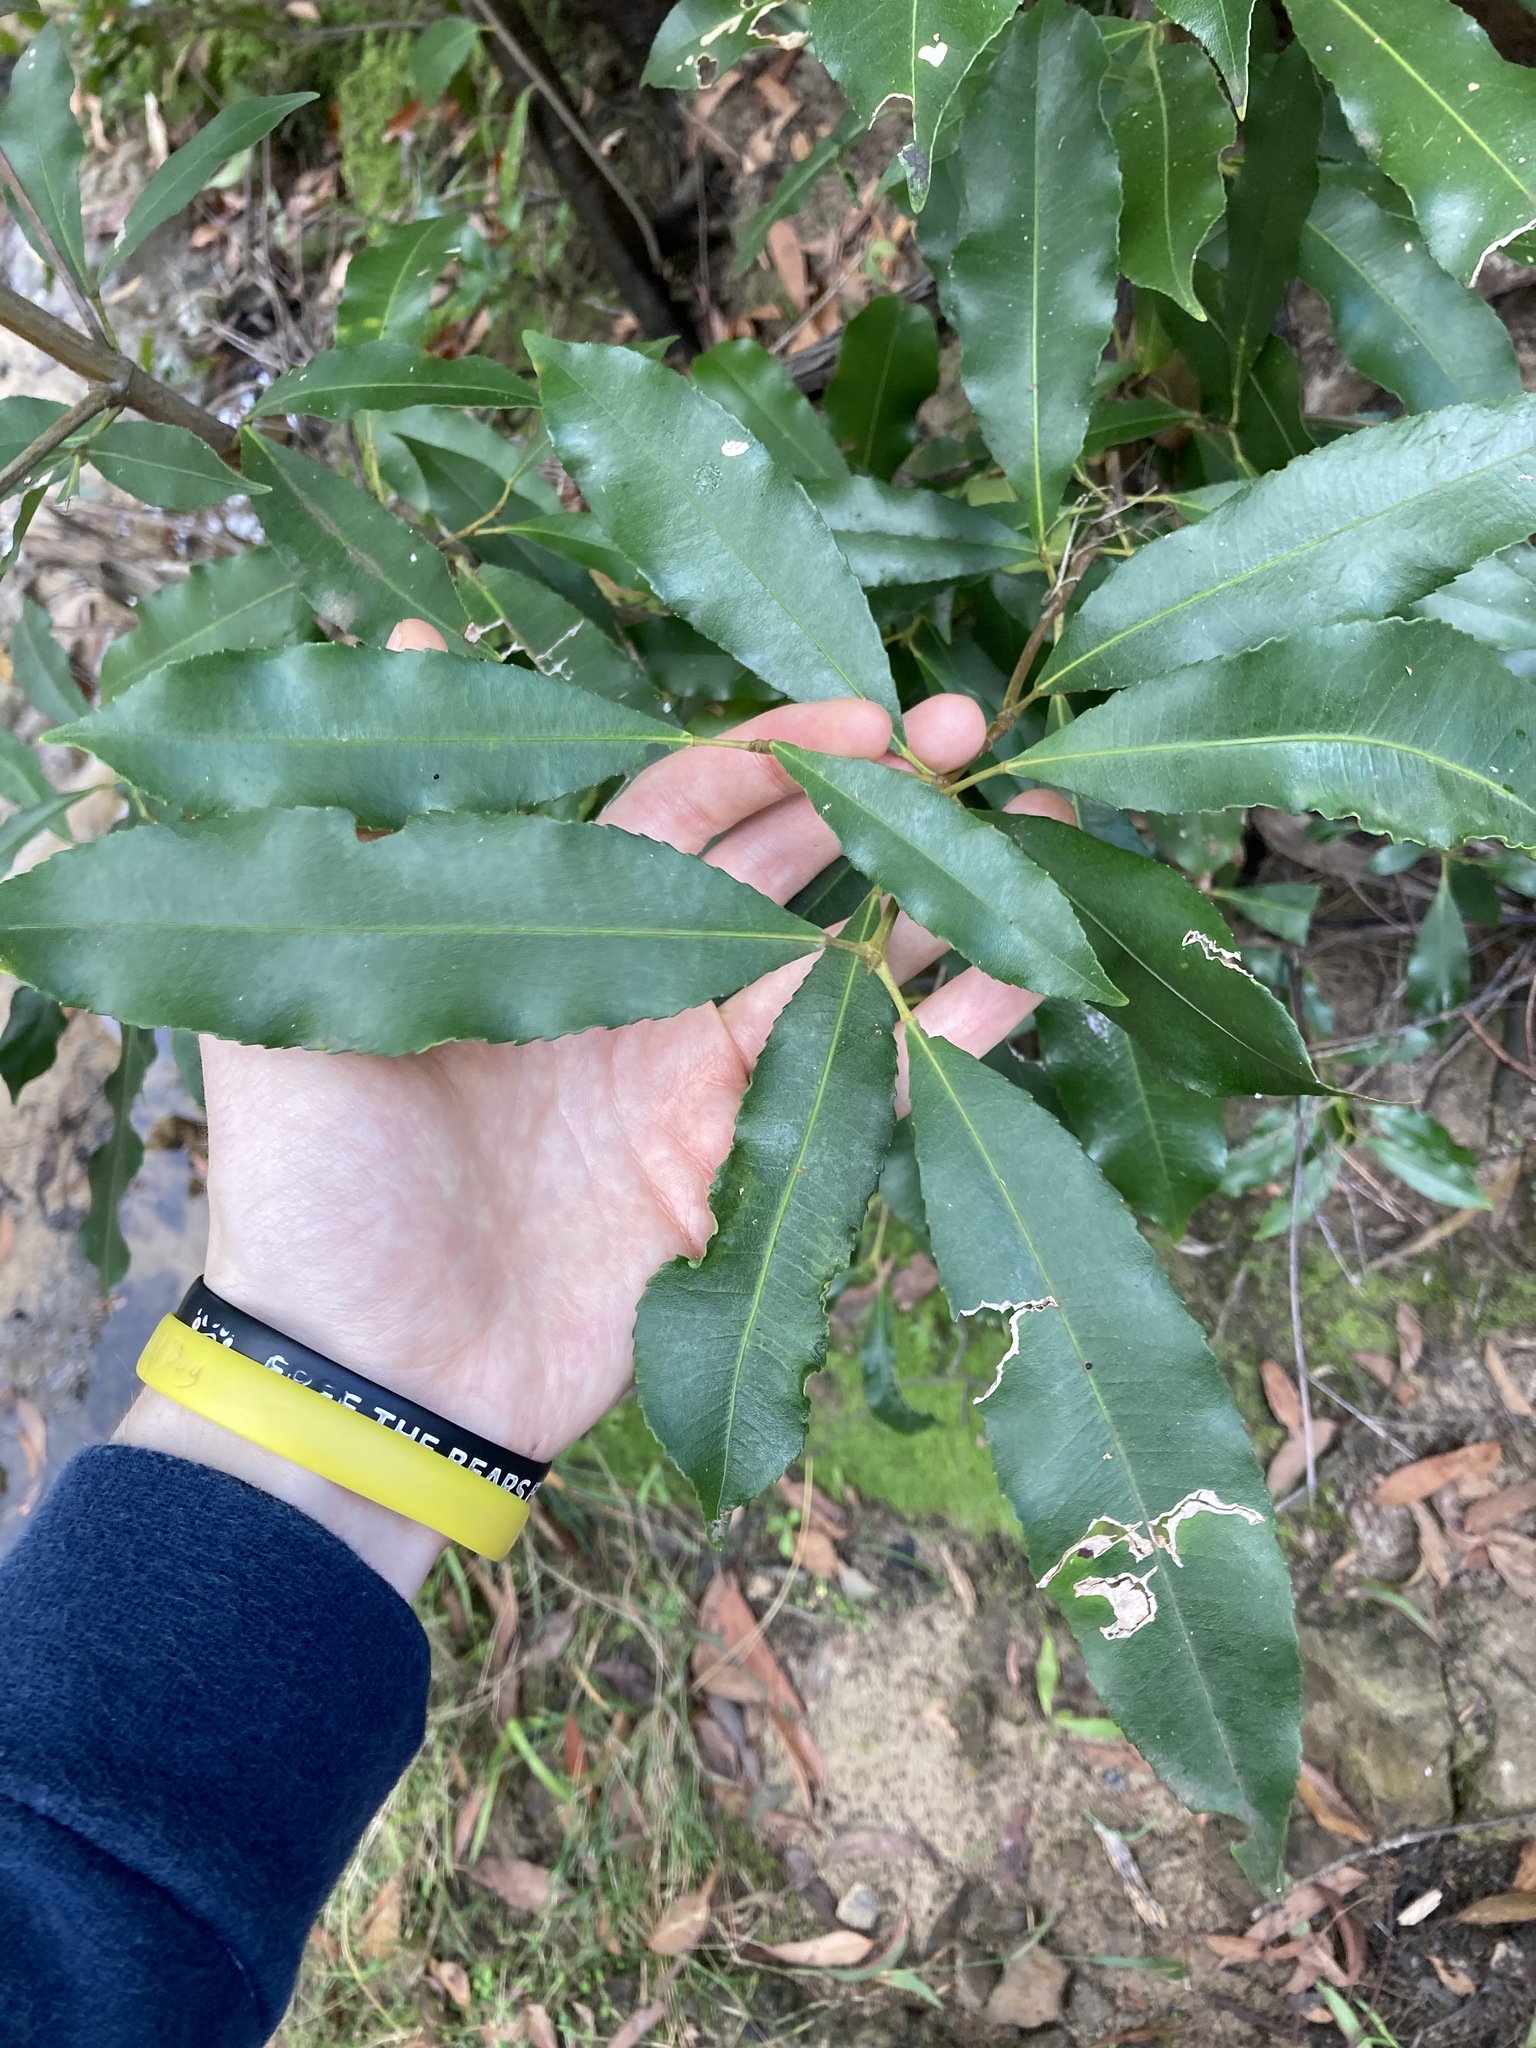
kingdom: Plantae
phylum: Tracheophyta
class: Magnoliopsida
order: Oxalidales
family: Cunoniaceae
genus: Ceratopetalum
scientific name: Ceratopetalum apetalum
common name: Scented satinwood
